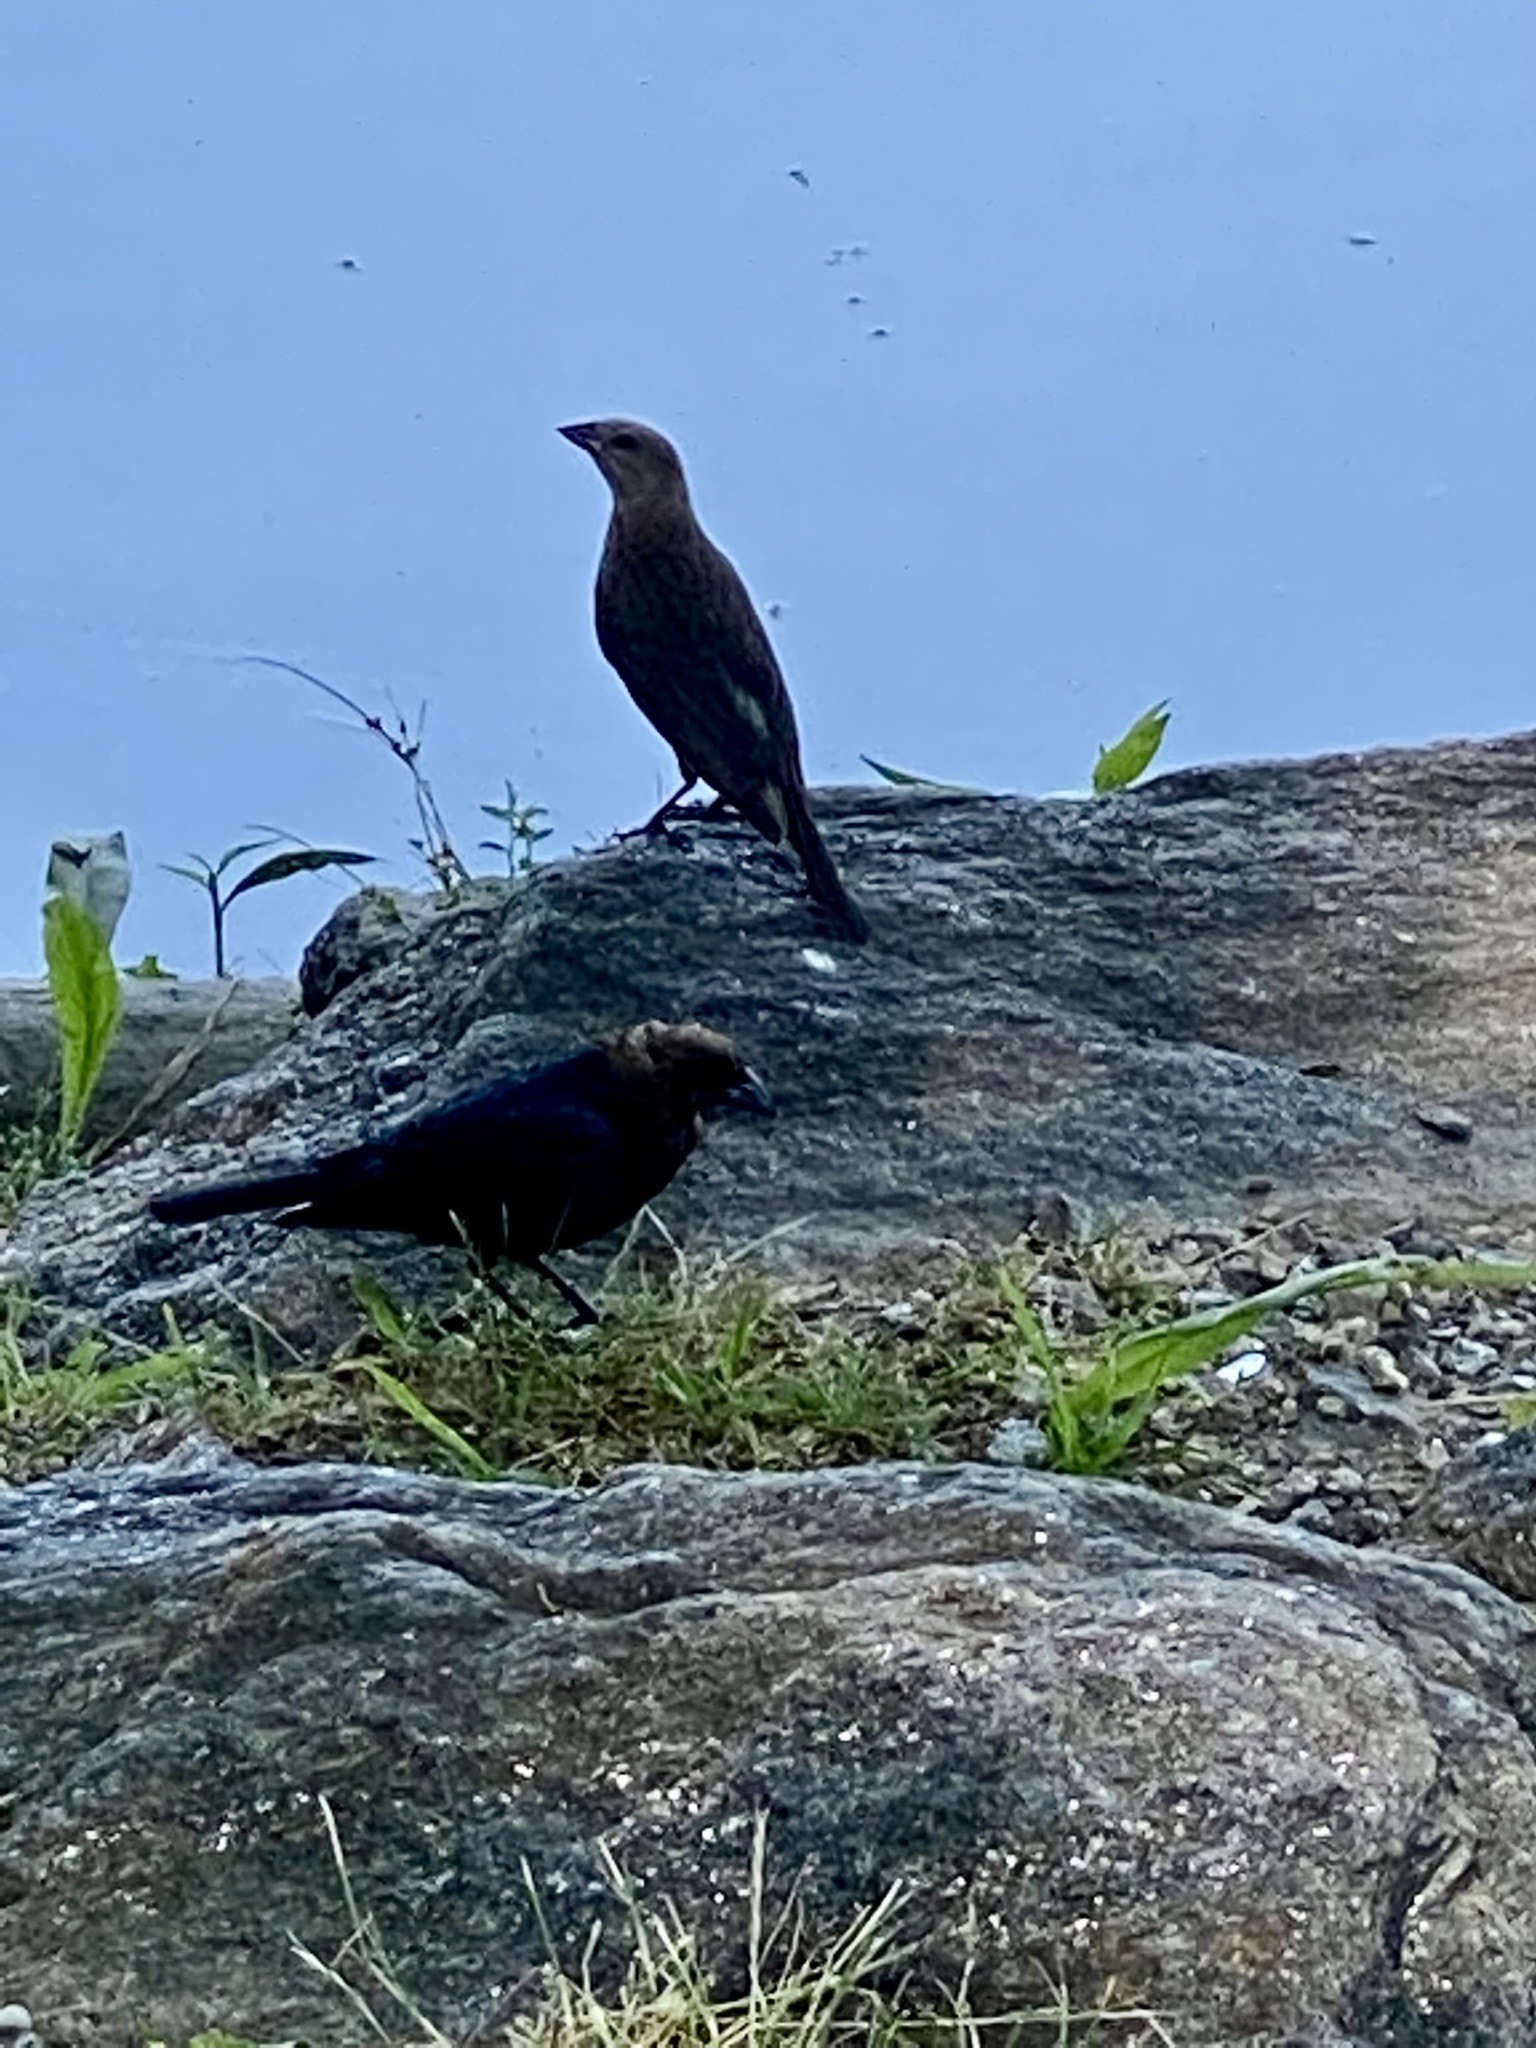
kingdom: Animalia
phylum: Chordata
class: Aves
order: Passeriformes
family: Icteridae
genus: Molothrus
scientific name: Molothrus ater
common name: Brown-headed cowbird
